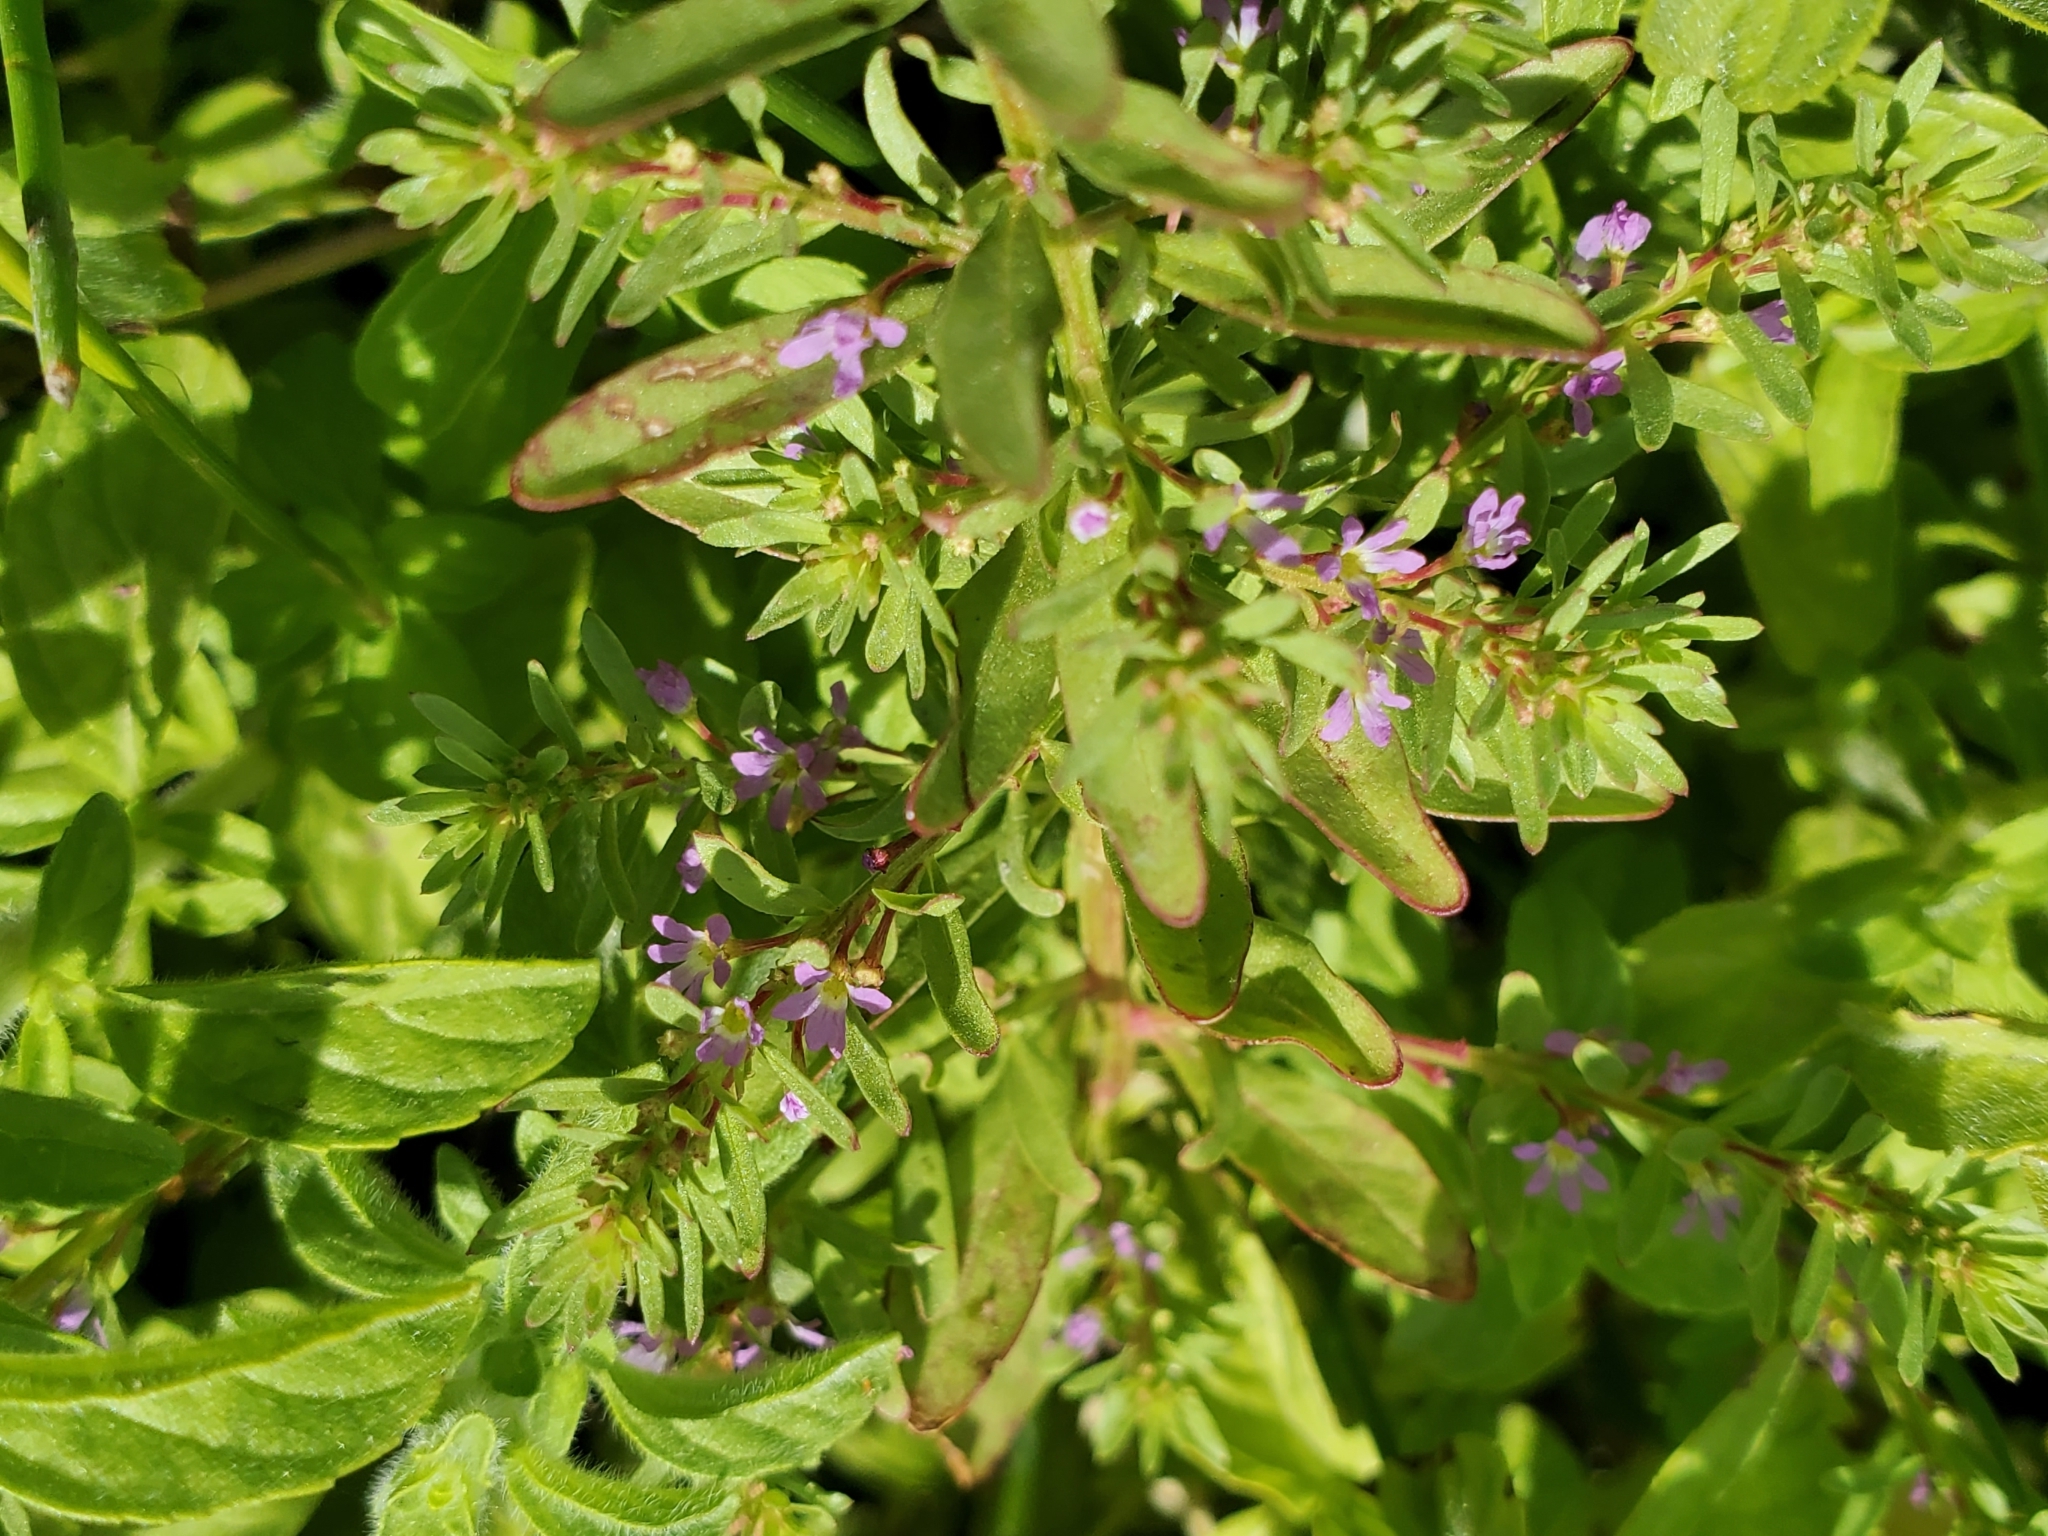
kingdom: Plantae
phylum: Tracheophyta
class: Magnoliopsida
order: Myrtales
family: Lythraceae
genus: Lythrum
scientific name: Lythrum hyssopifolia
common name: Grass-poly
